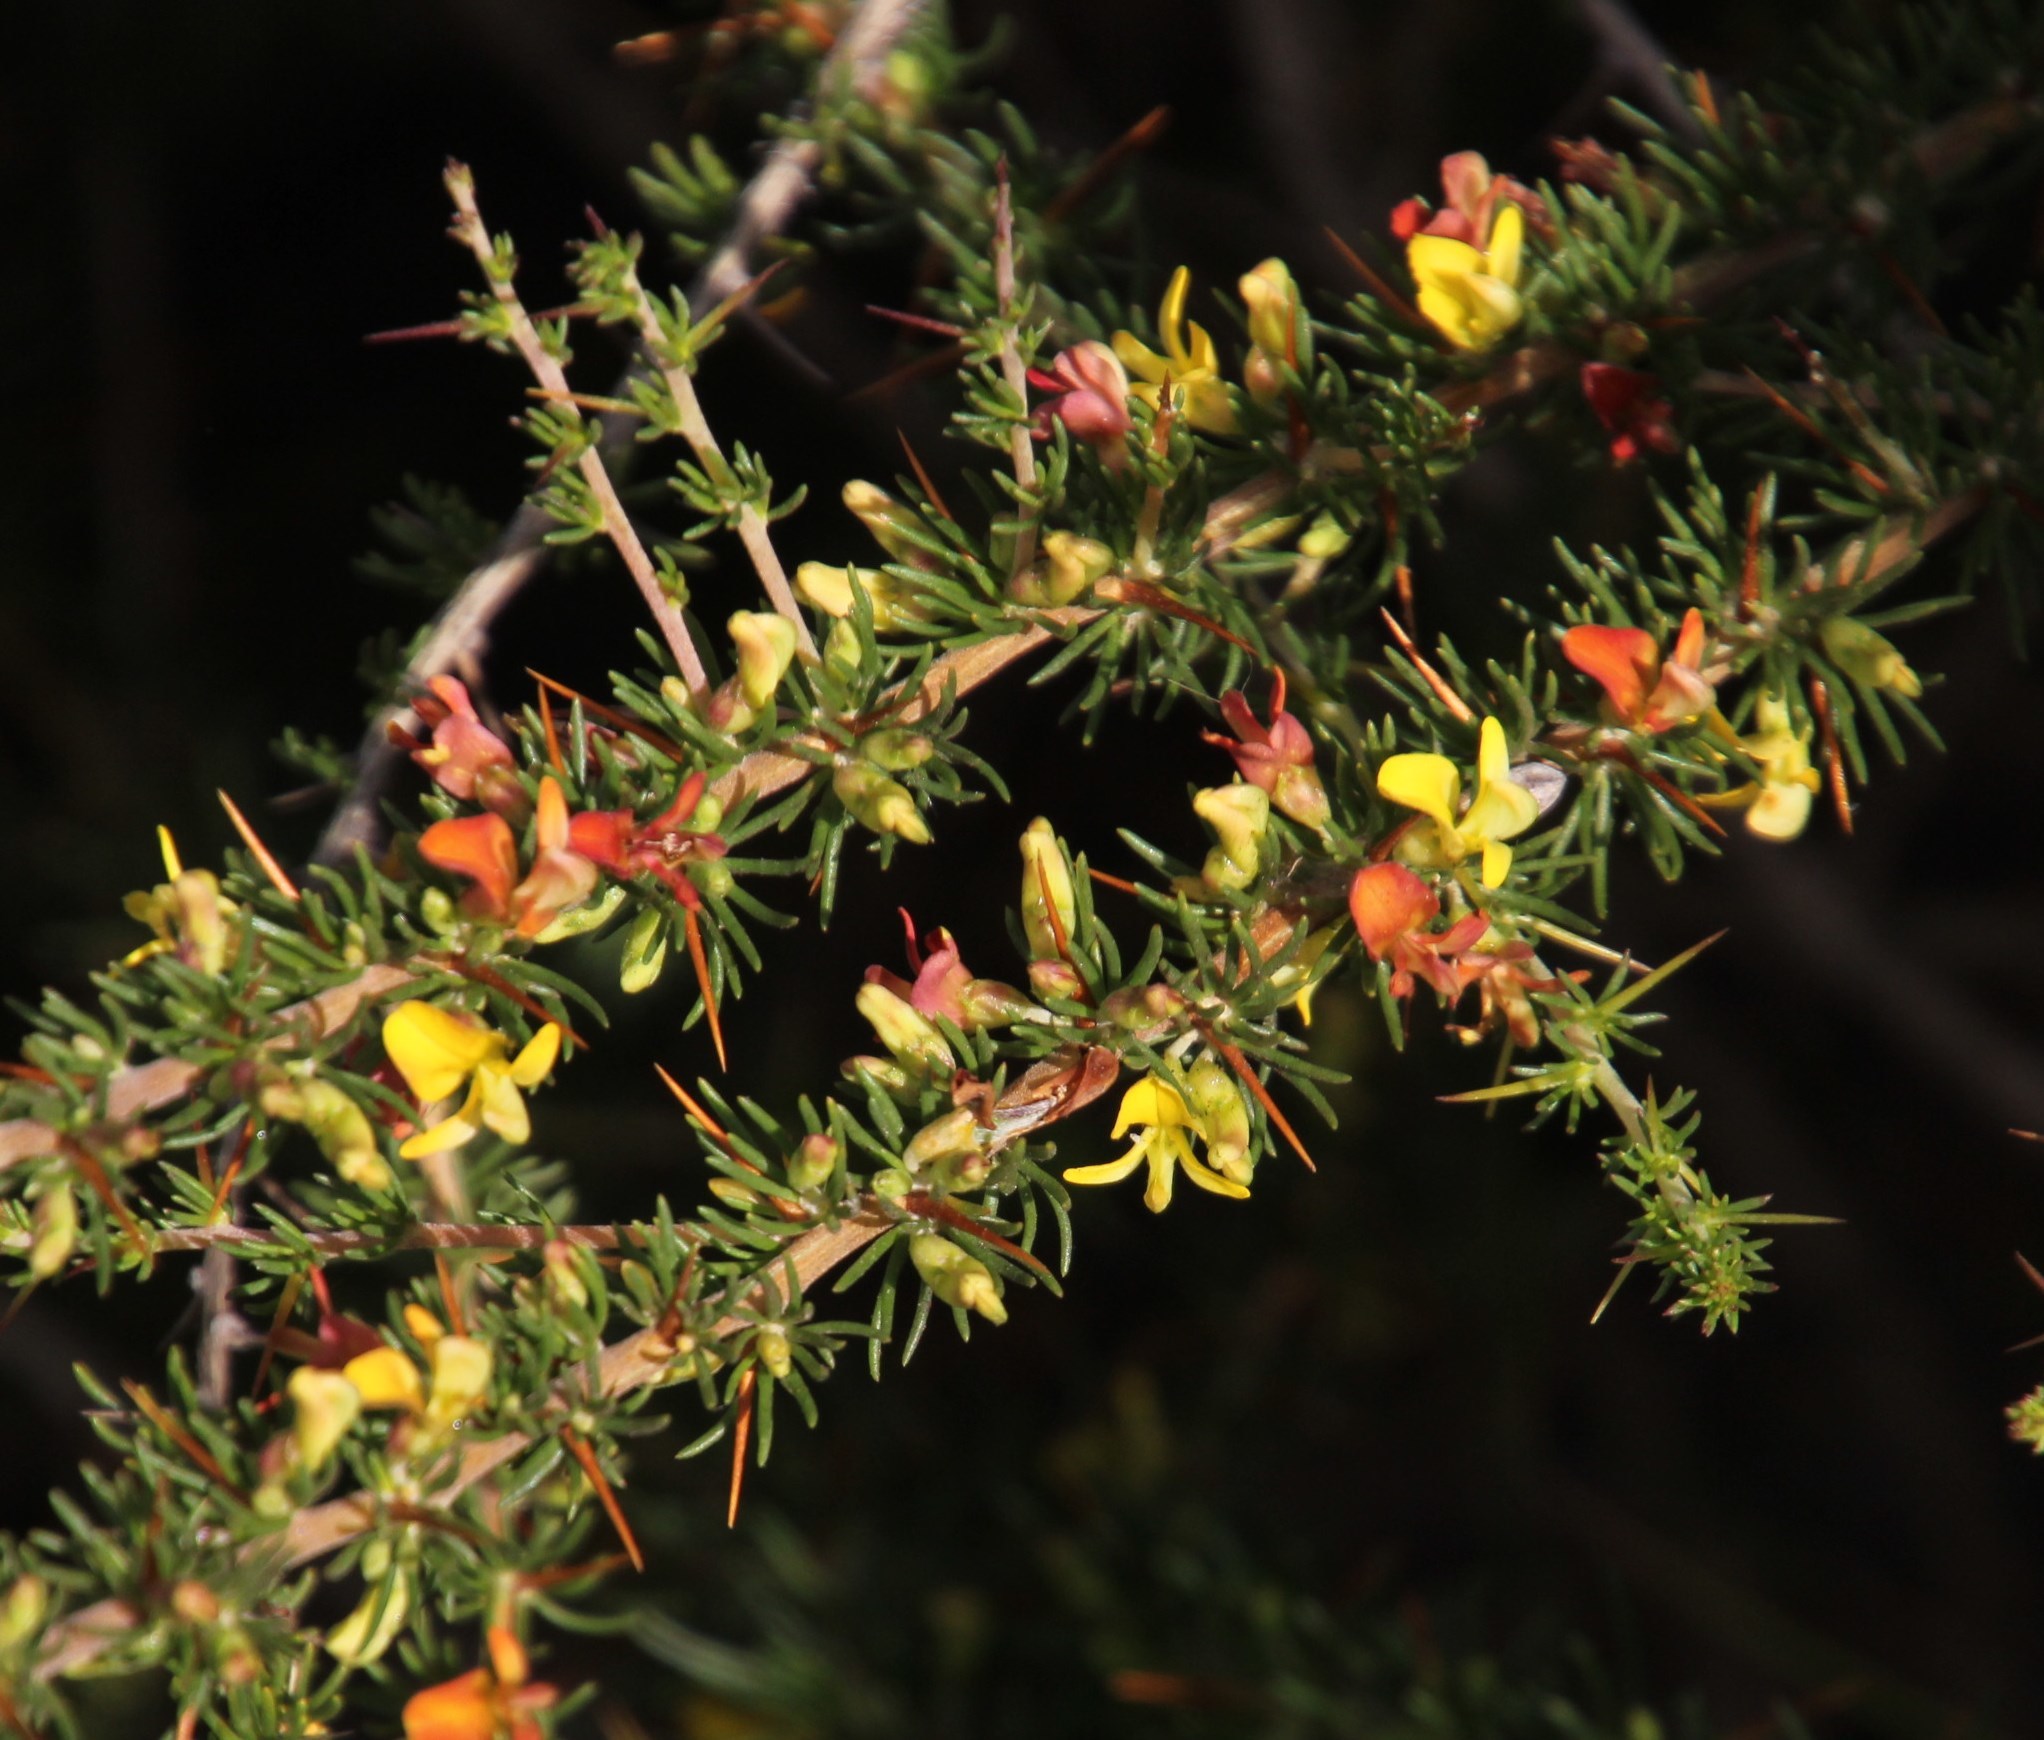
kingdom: Plantae
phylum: Tracheophyta
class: Magnoliopsida
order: Fabales
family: Fabaceae
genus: Aspalathus
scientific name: Aspalathus spinosa
